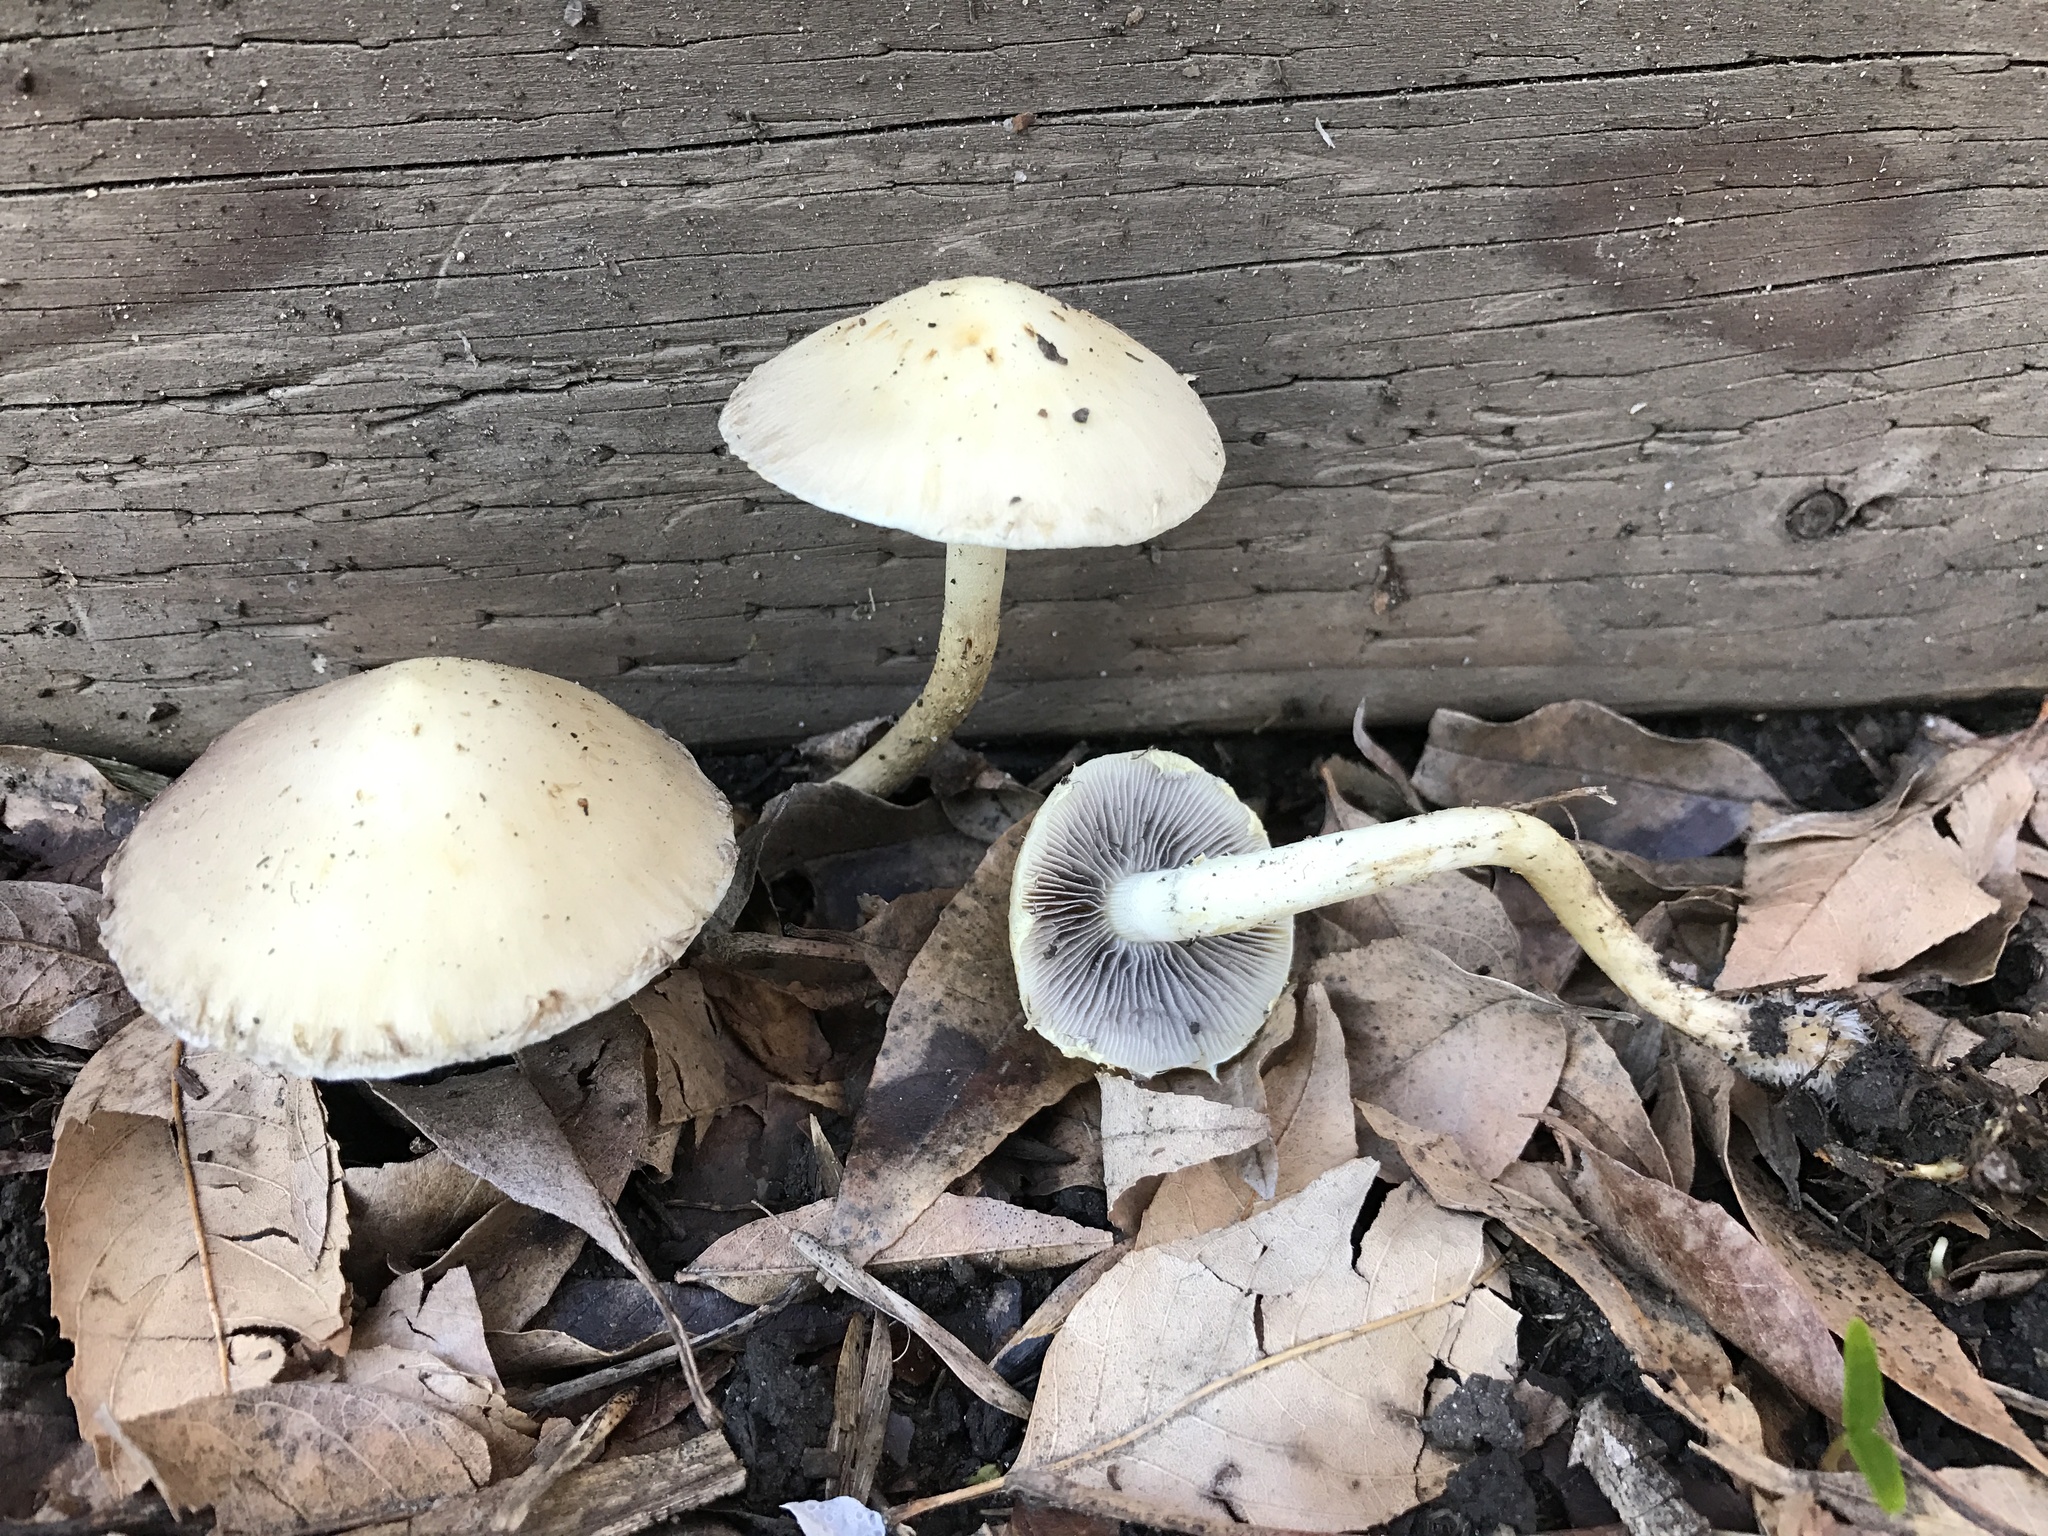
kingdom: Fungi
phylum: Basidiomycota
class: Agaricomycetes
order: Agaricales
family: Strophariaceae
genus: Leratiomyces
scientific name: Leratiomyces percevalii
